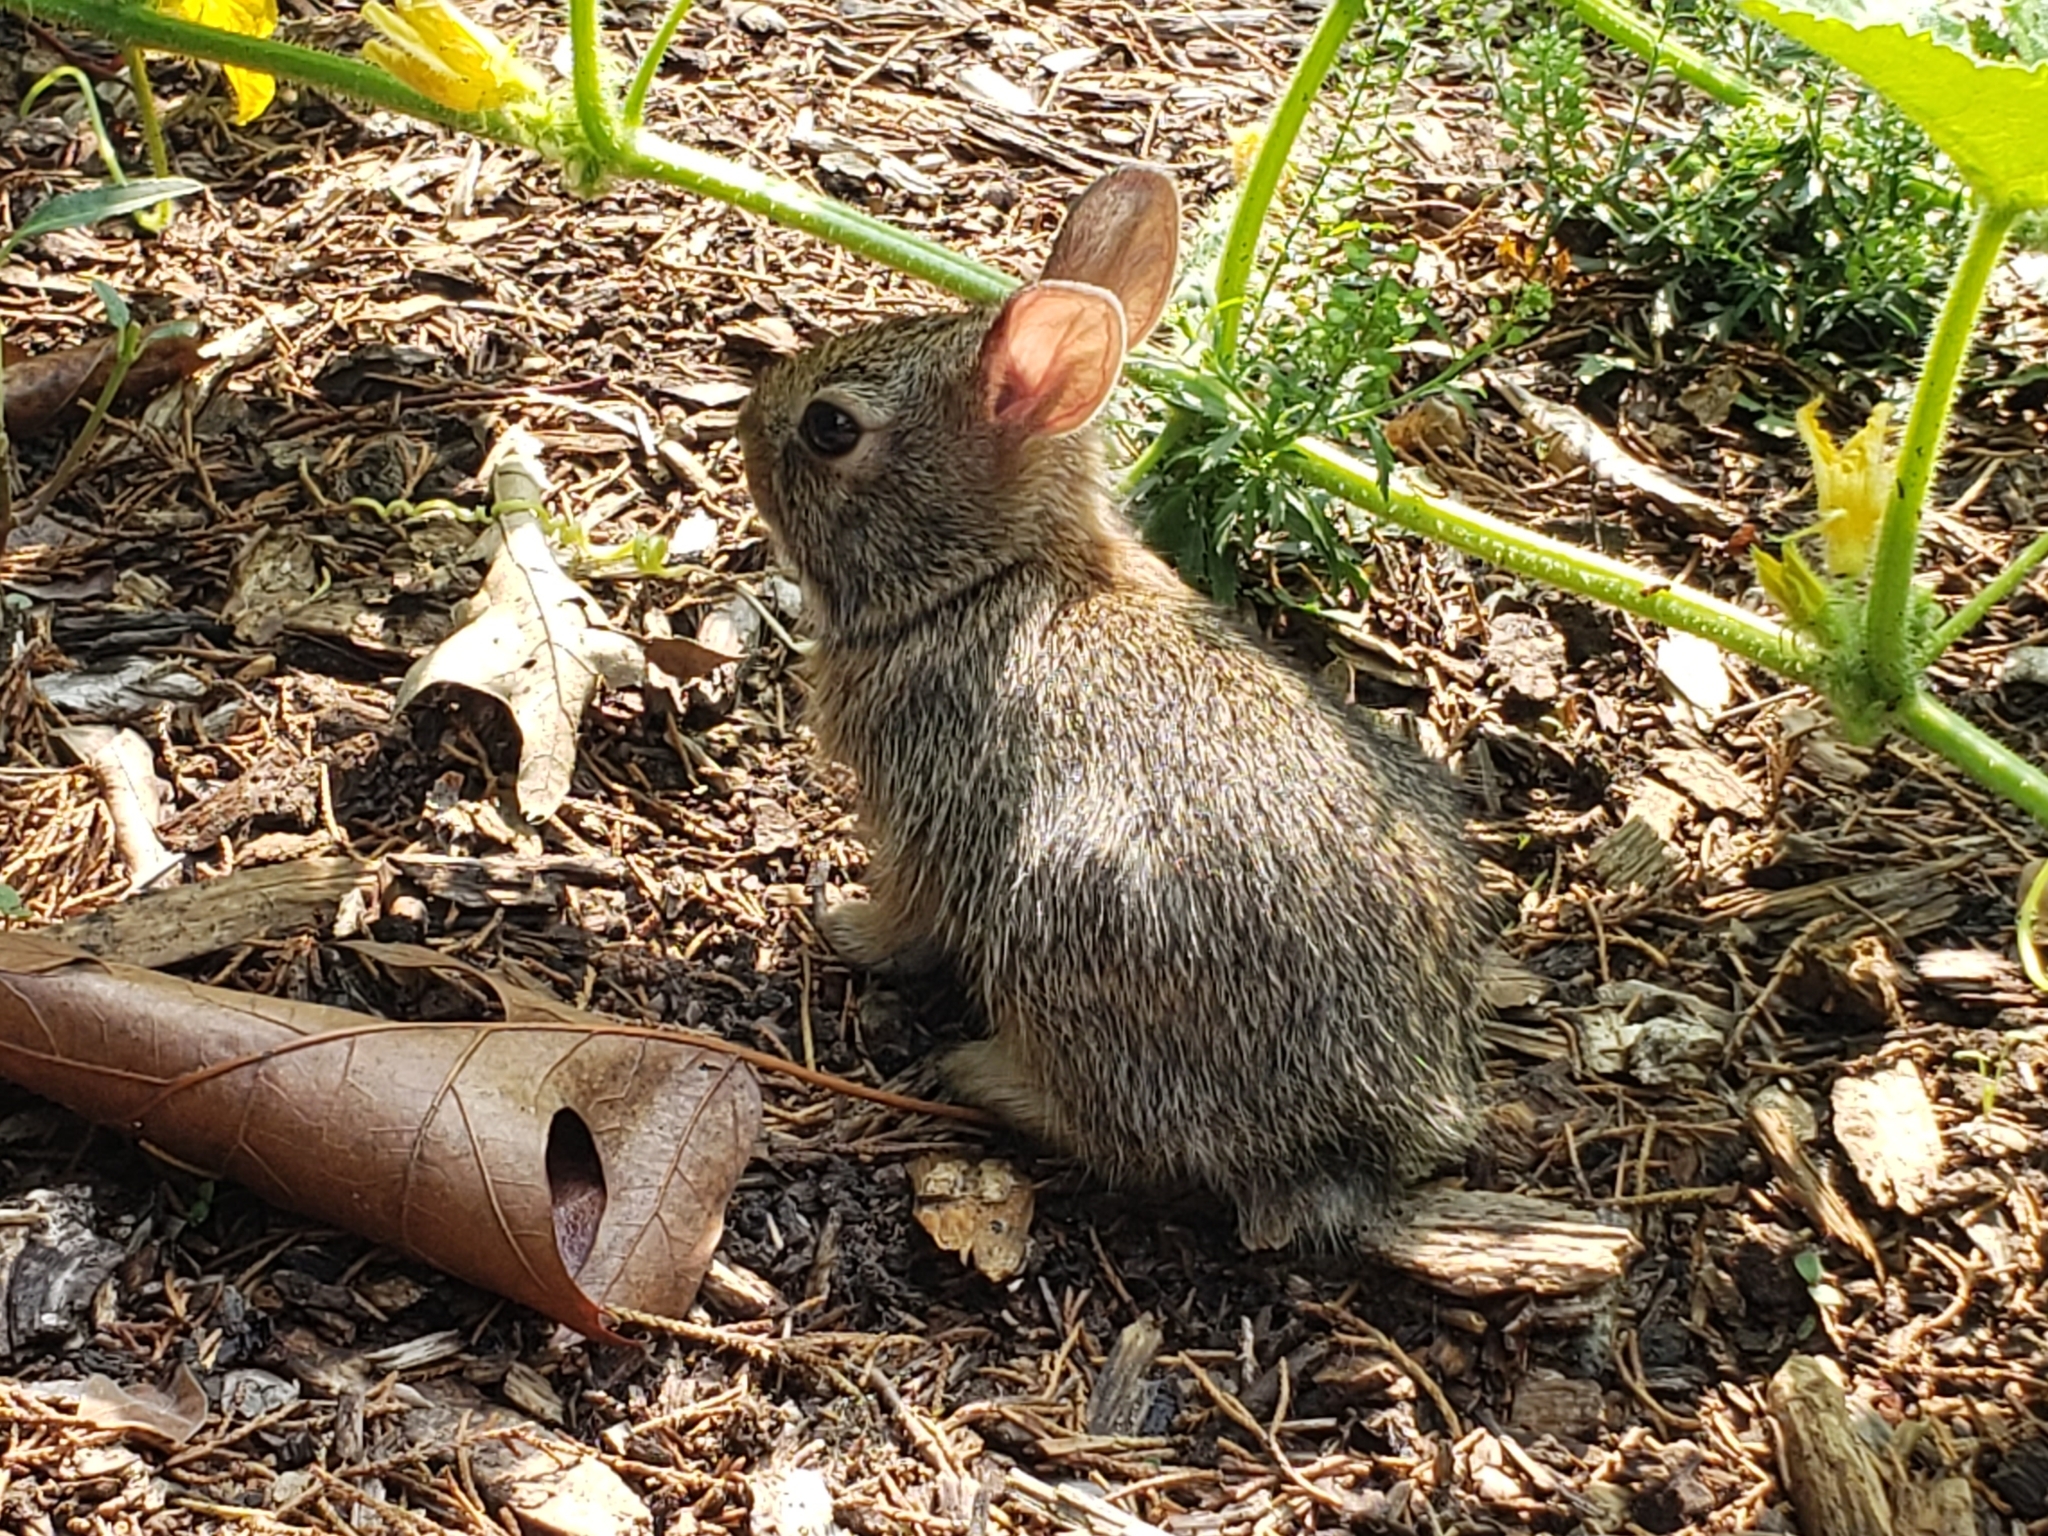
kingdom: Animalia
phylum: Chordata
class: Mammalia
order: Lagomorpha
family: Leporidae
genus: Sylvilagus
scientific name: Sylvilagus floridanus
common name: Eastern cottontail
